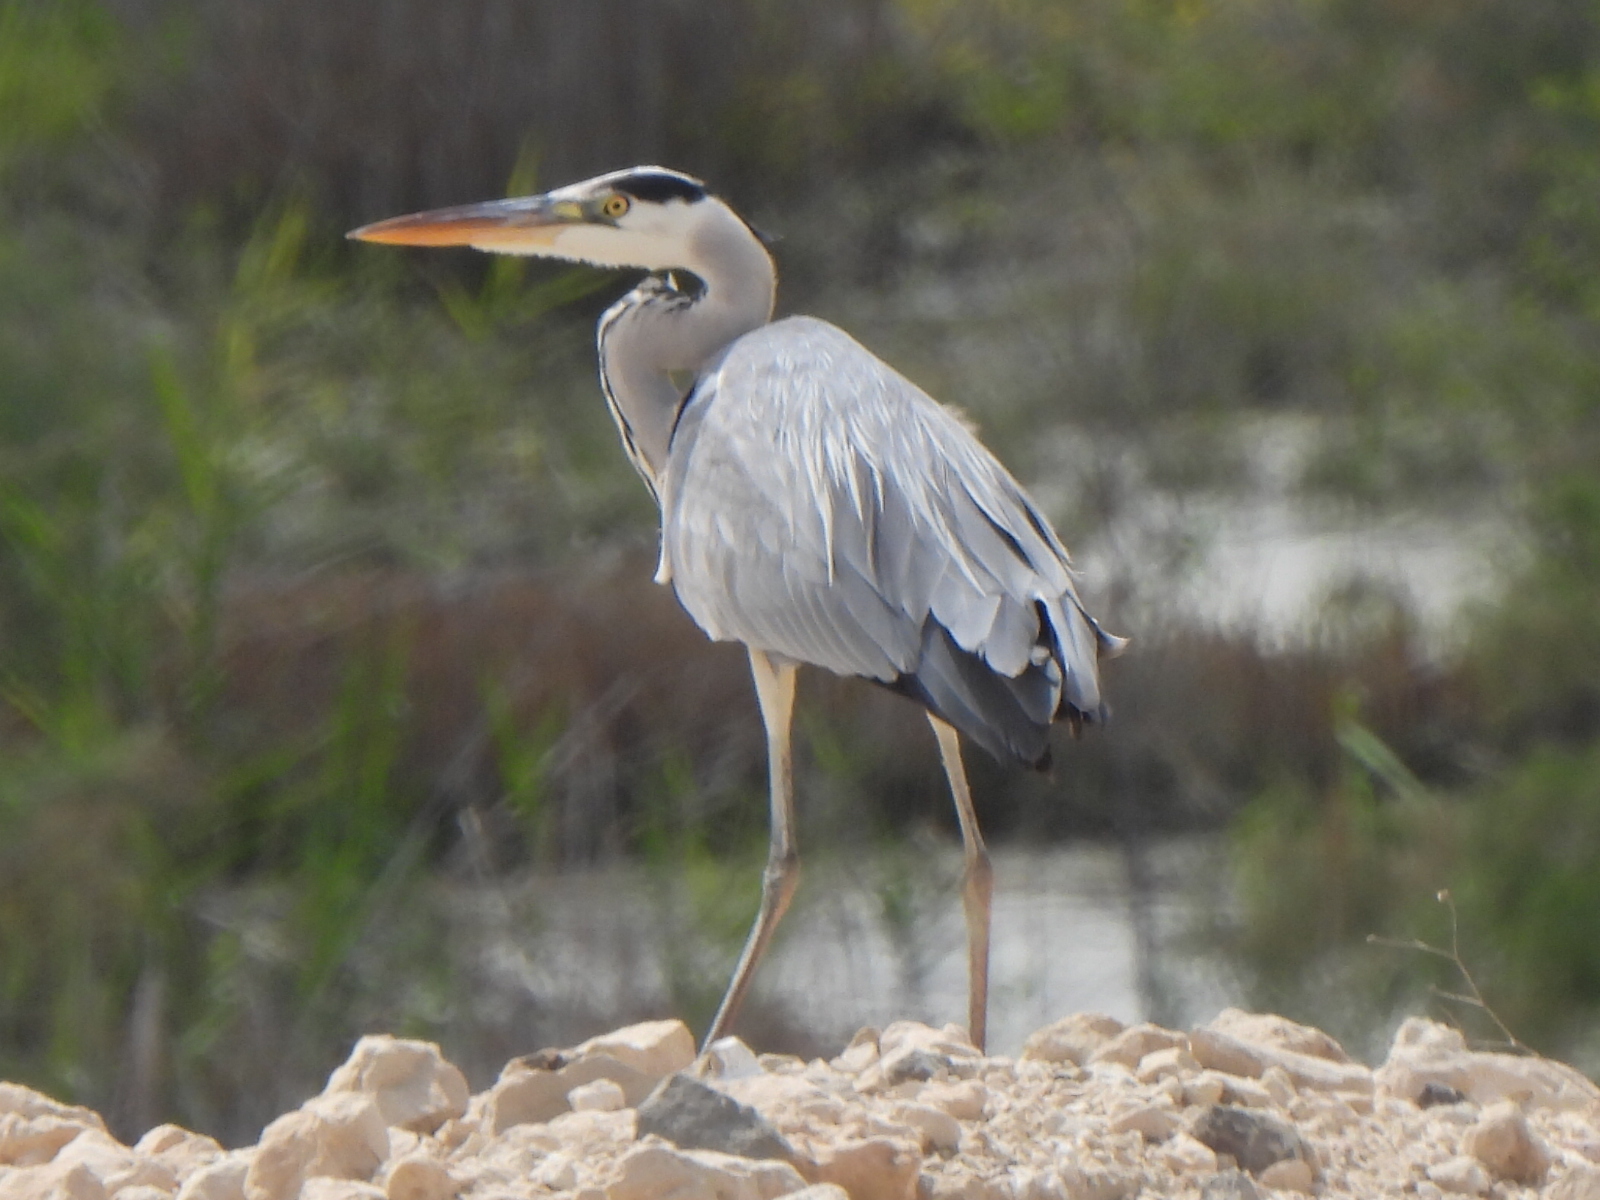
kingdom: Animalia
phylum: Chordata
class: Aves
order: Pelecaniformes
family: Ardeidae
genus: Ardea
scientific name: Ardea cinerea
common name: Grey heron
